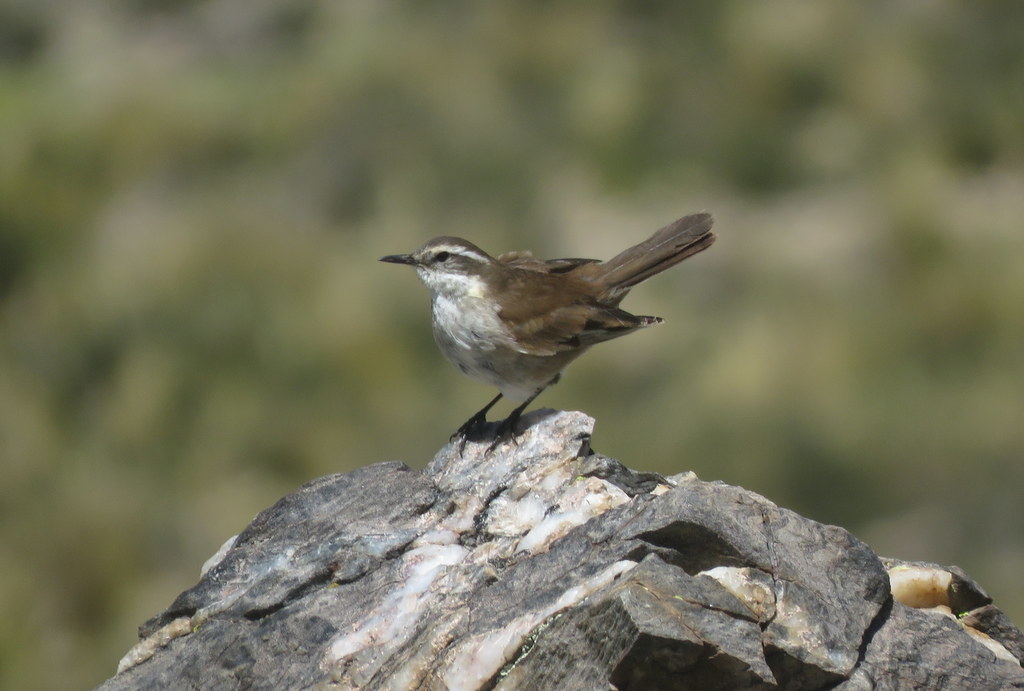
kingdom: Animalia
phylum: Chordata
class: Aves
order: Passeriformes
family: Furnariidae
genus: Cinclodes
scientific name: Cinclodes fuscus
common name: Buff-winged cinclodes
